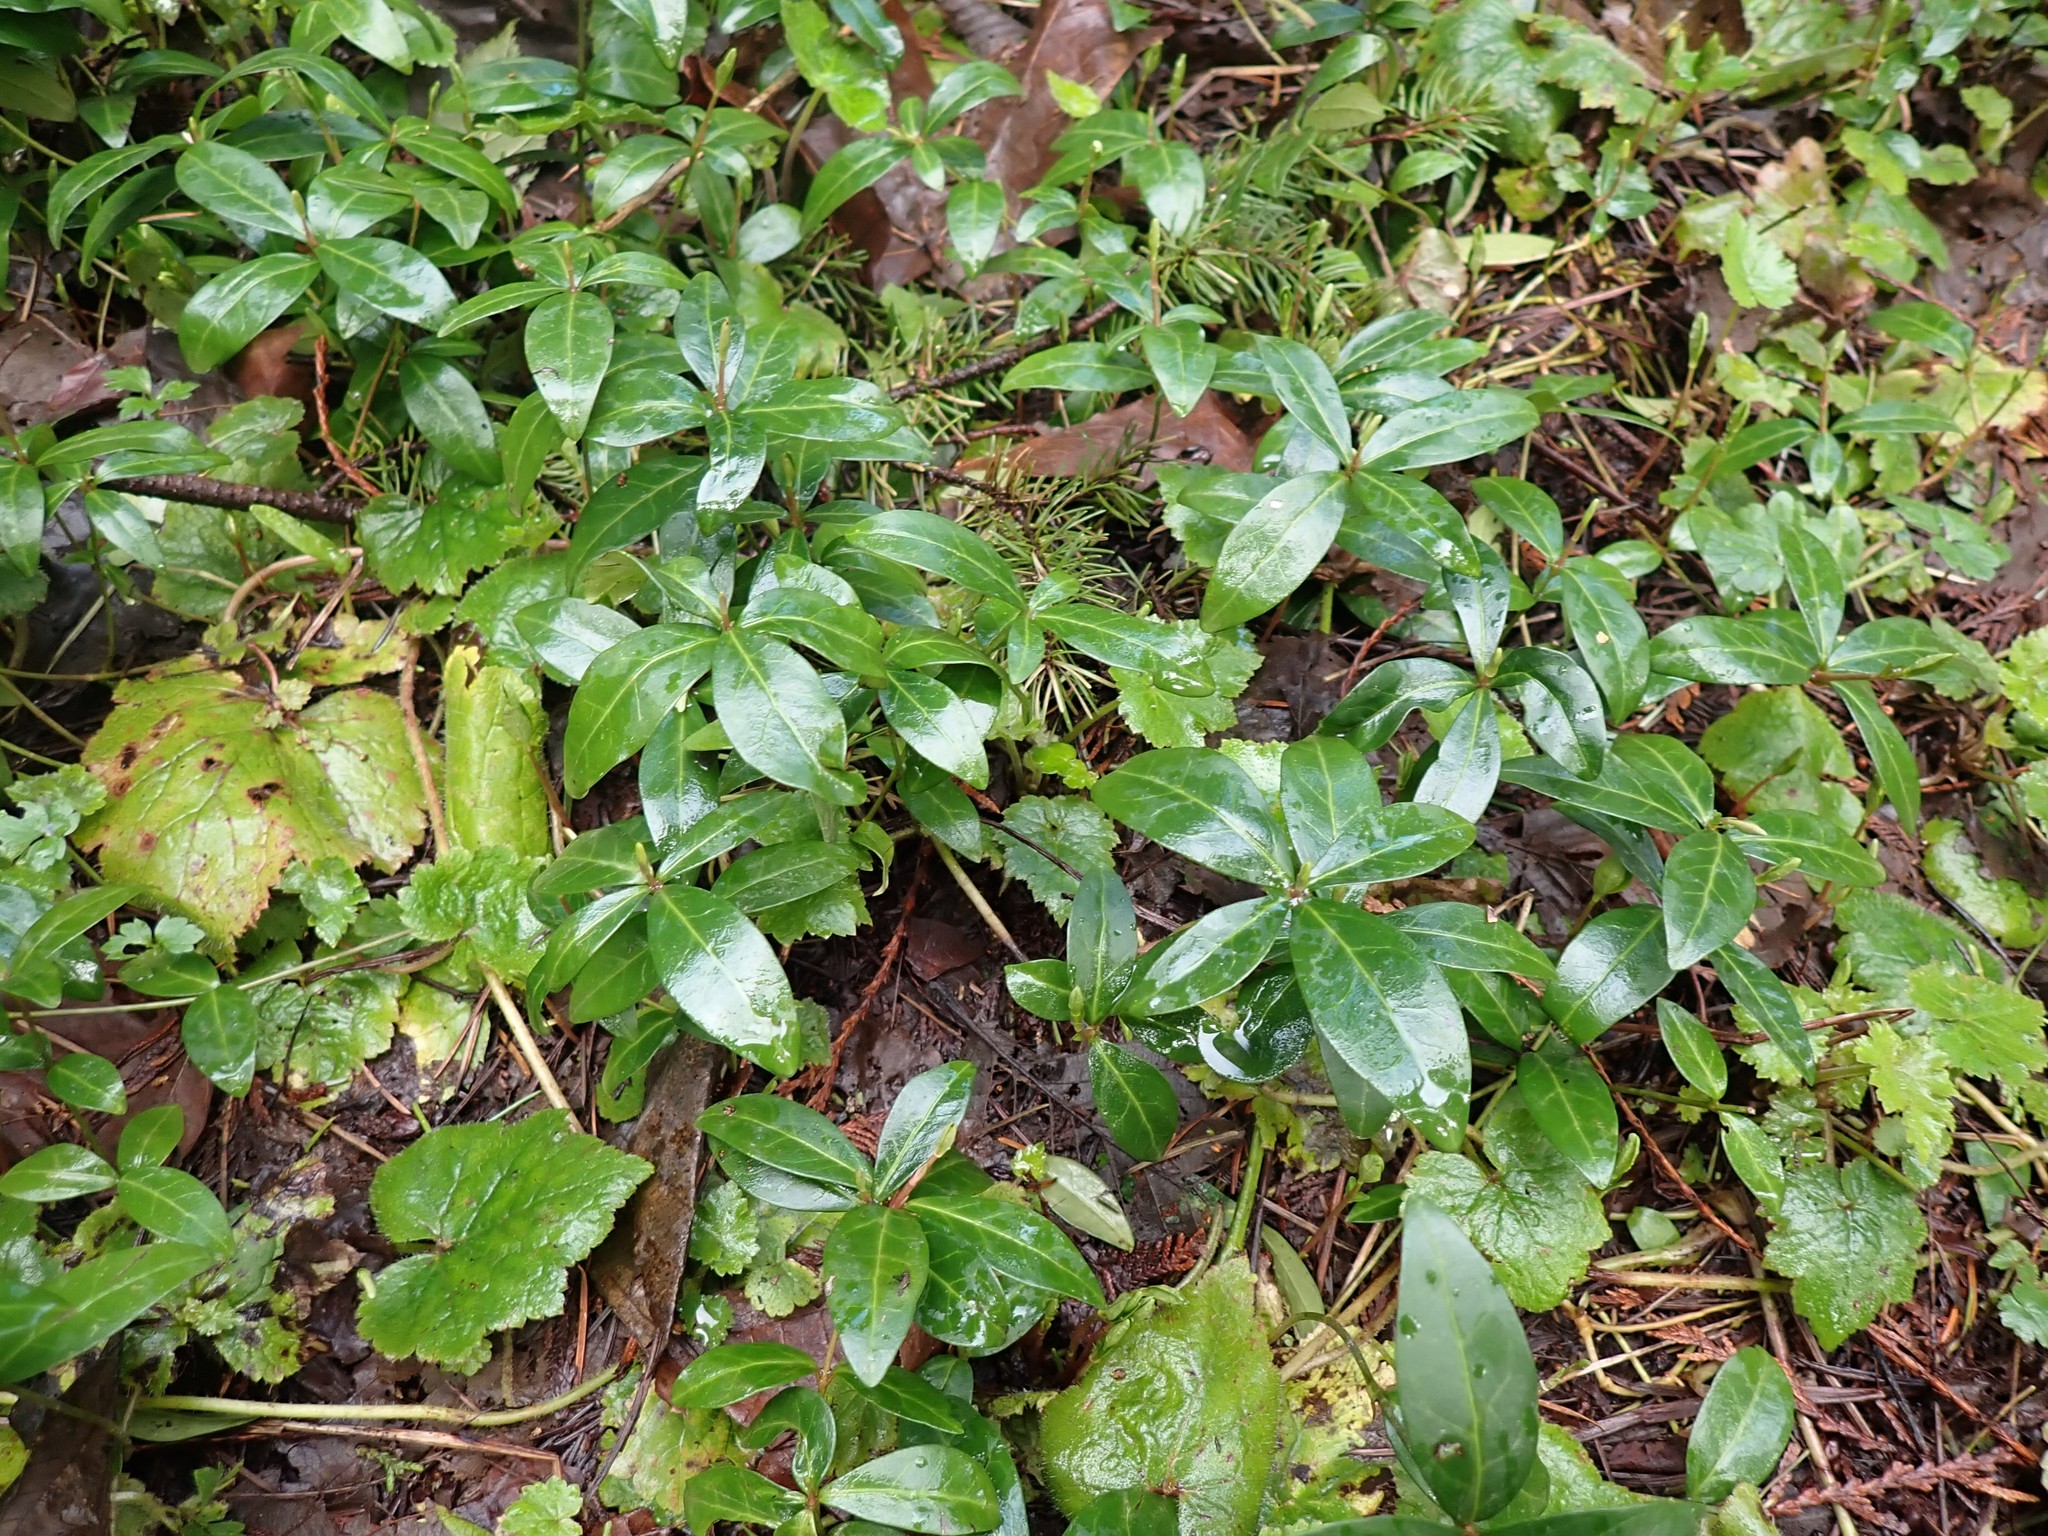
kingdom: Plantae
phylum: Tracheophyta
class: Magnoliopsida
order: Gentianales
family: Apocynaceae
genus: Vinca
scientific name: Vinca minor
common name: Lesser periwinkle
